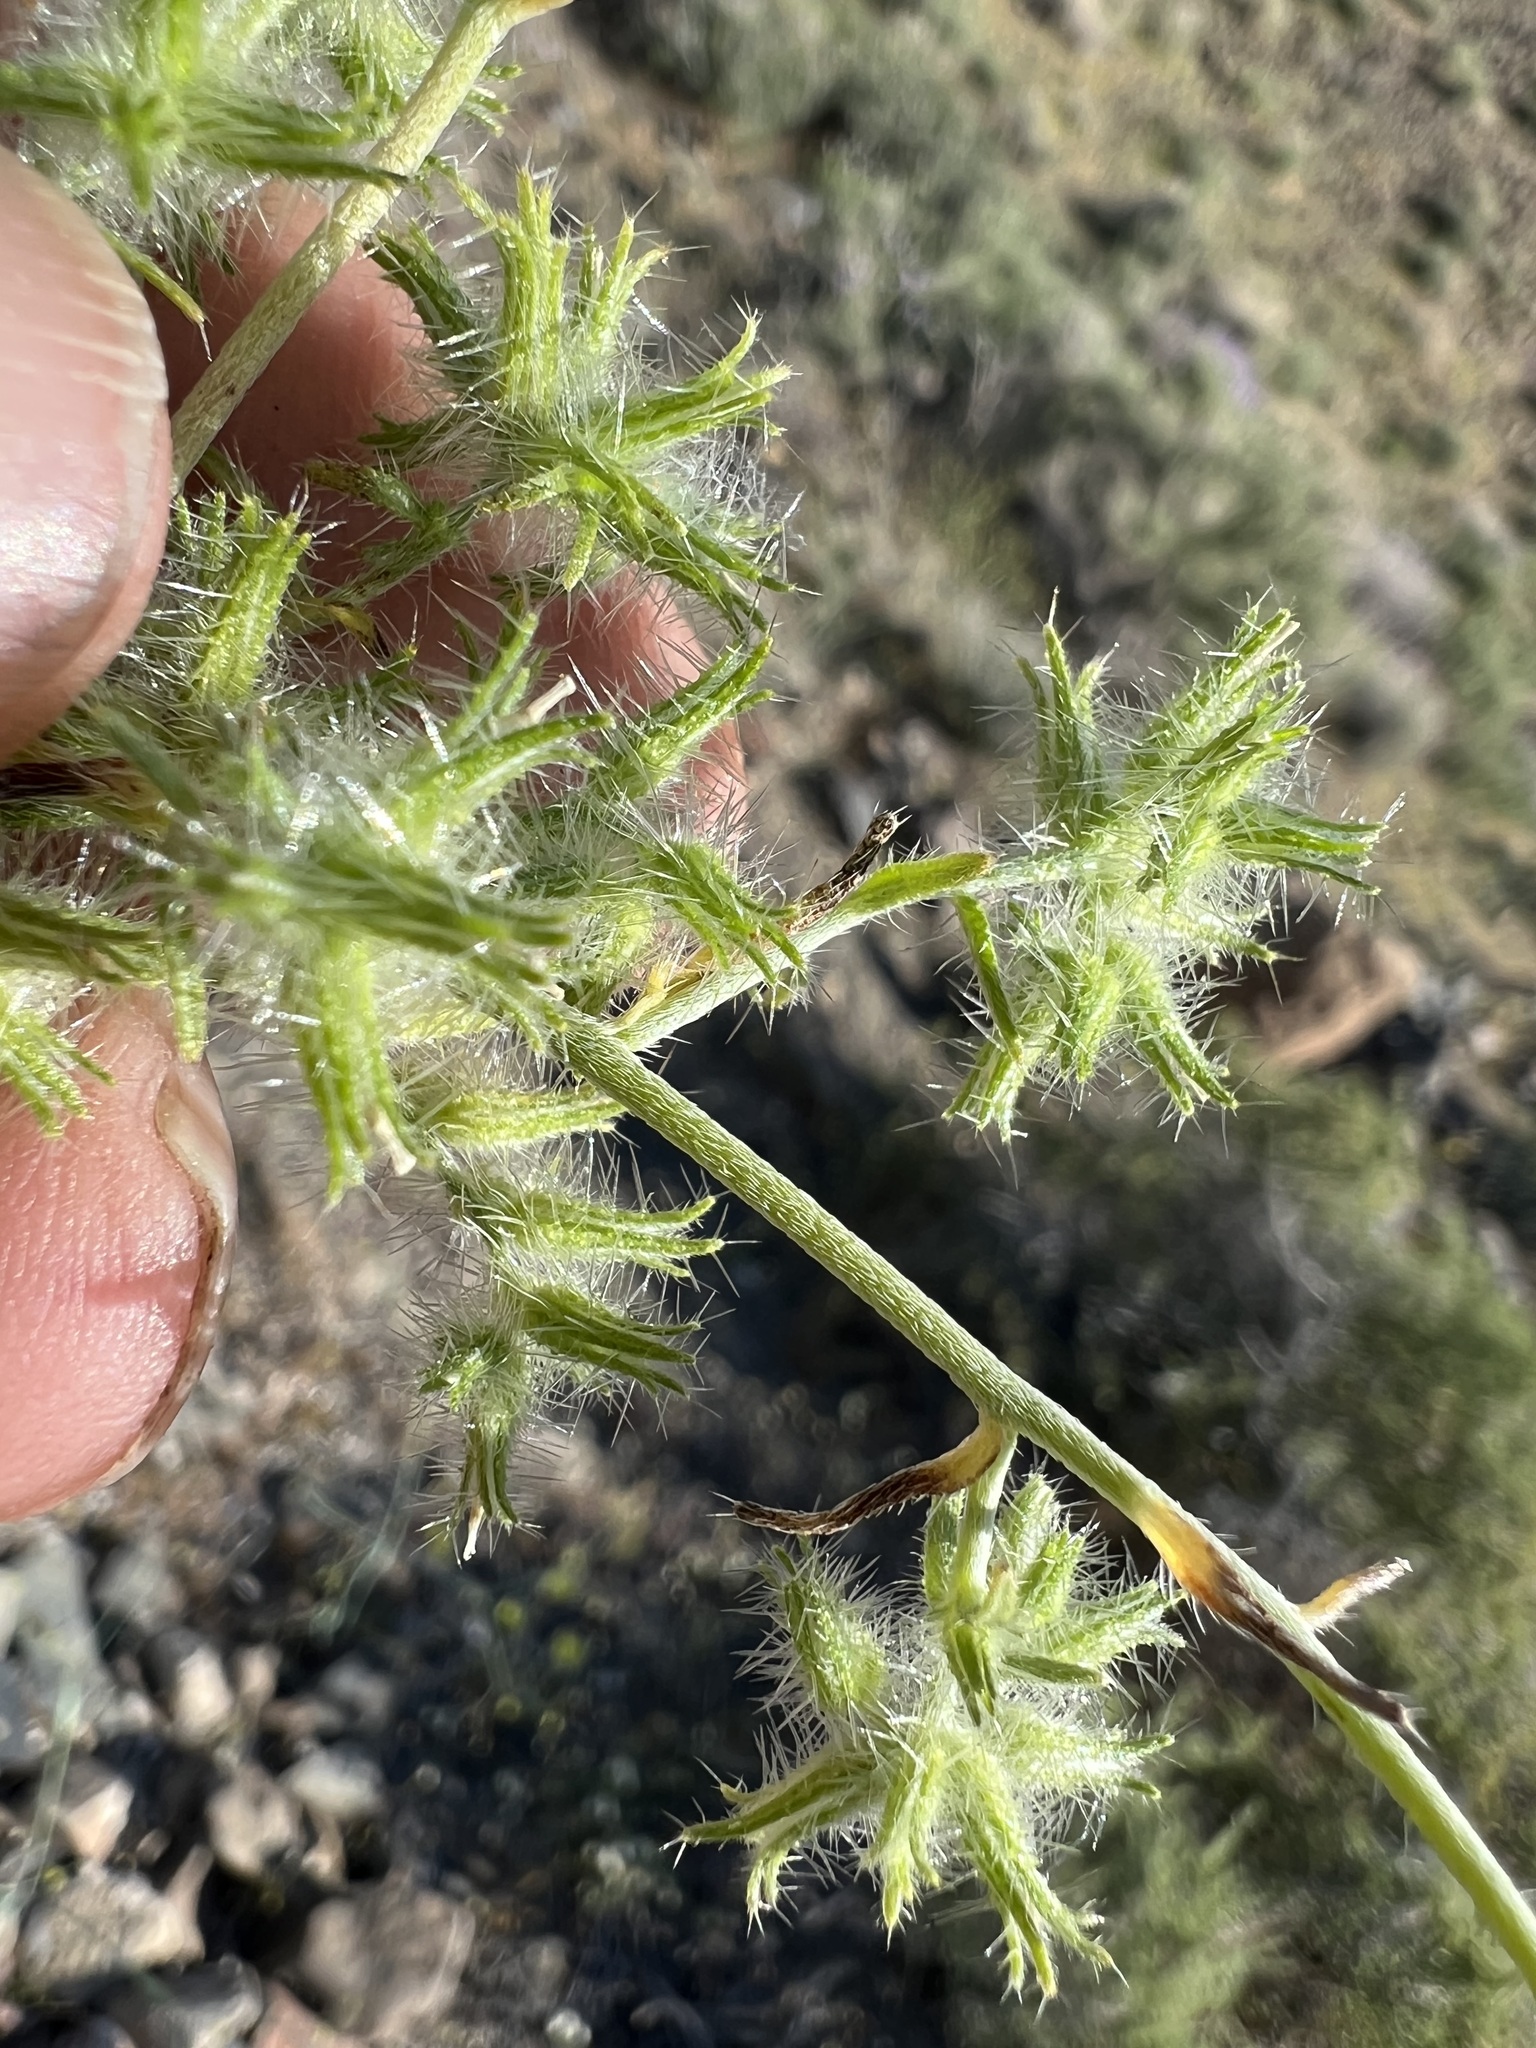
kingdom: Plantae
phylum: Tracheophyta
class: Magnoliopsida
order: Boraginales
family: Boraginaceae
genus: Cryptantha
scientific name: Cryptantha nevadensis
